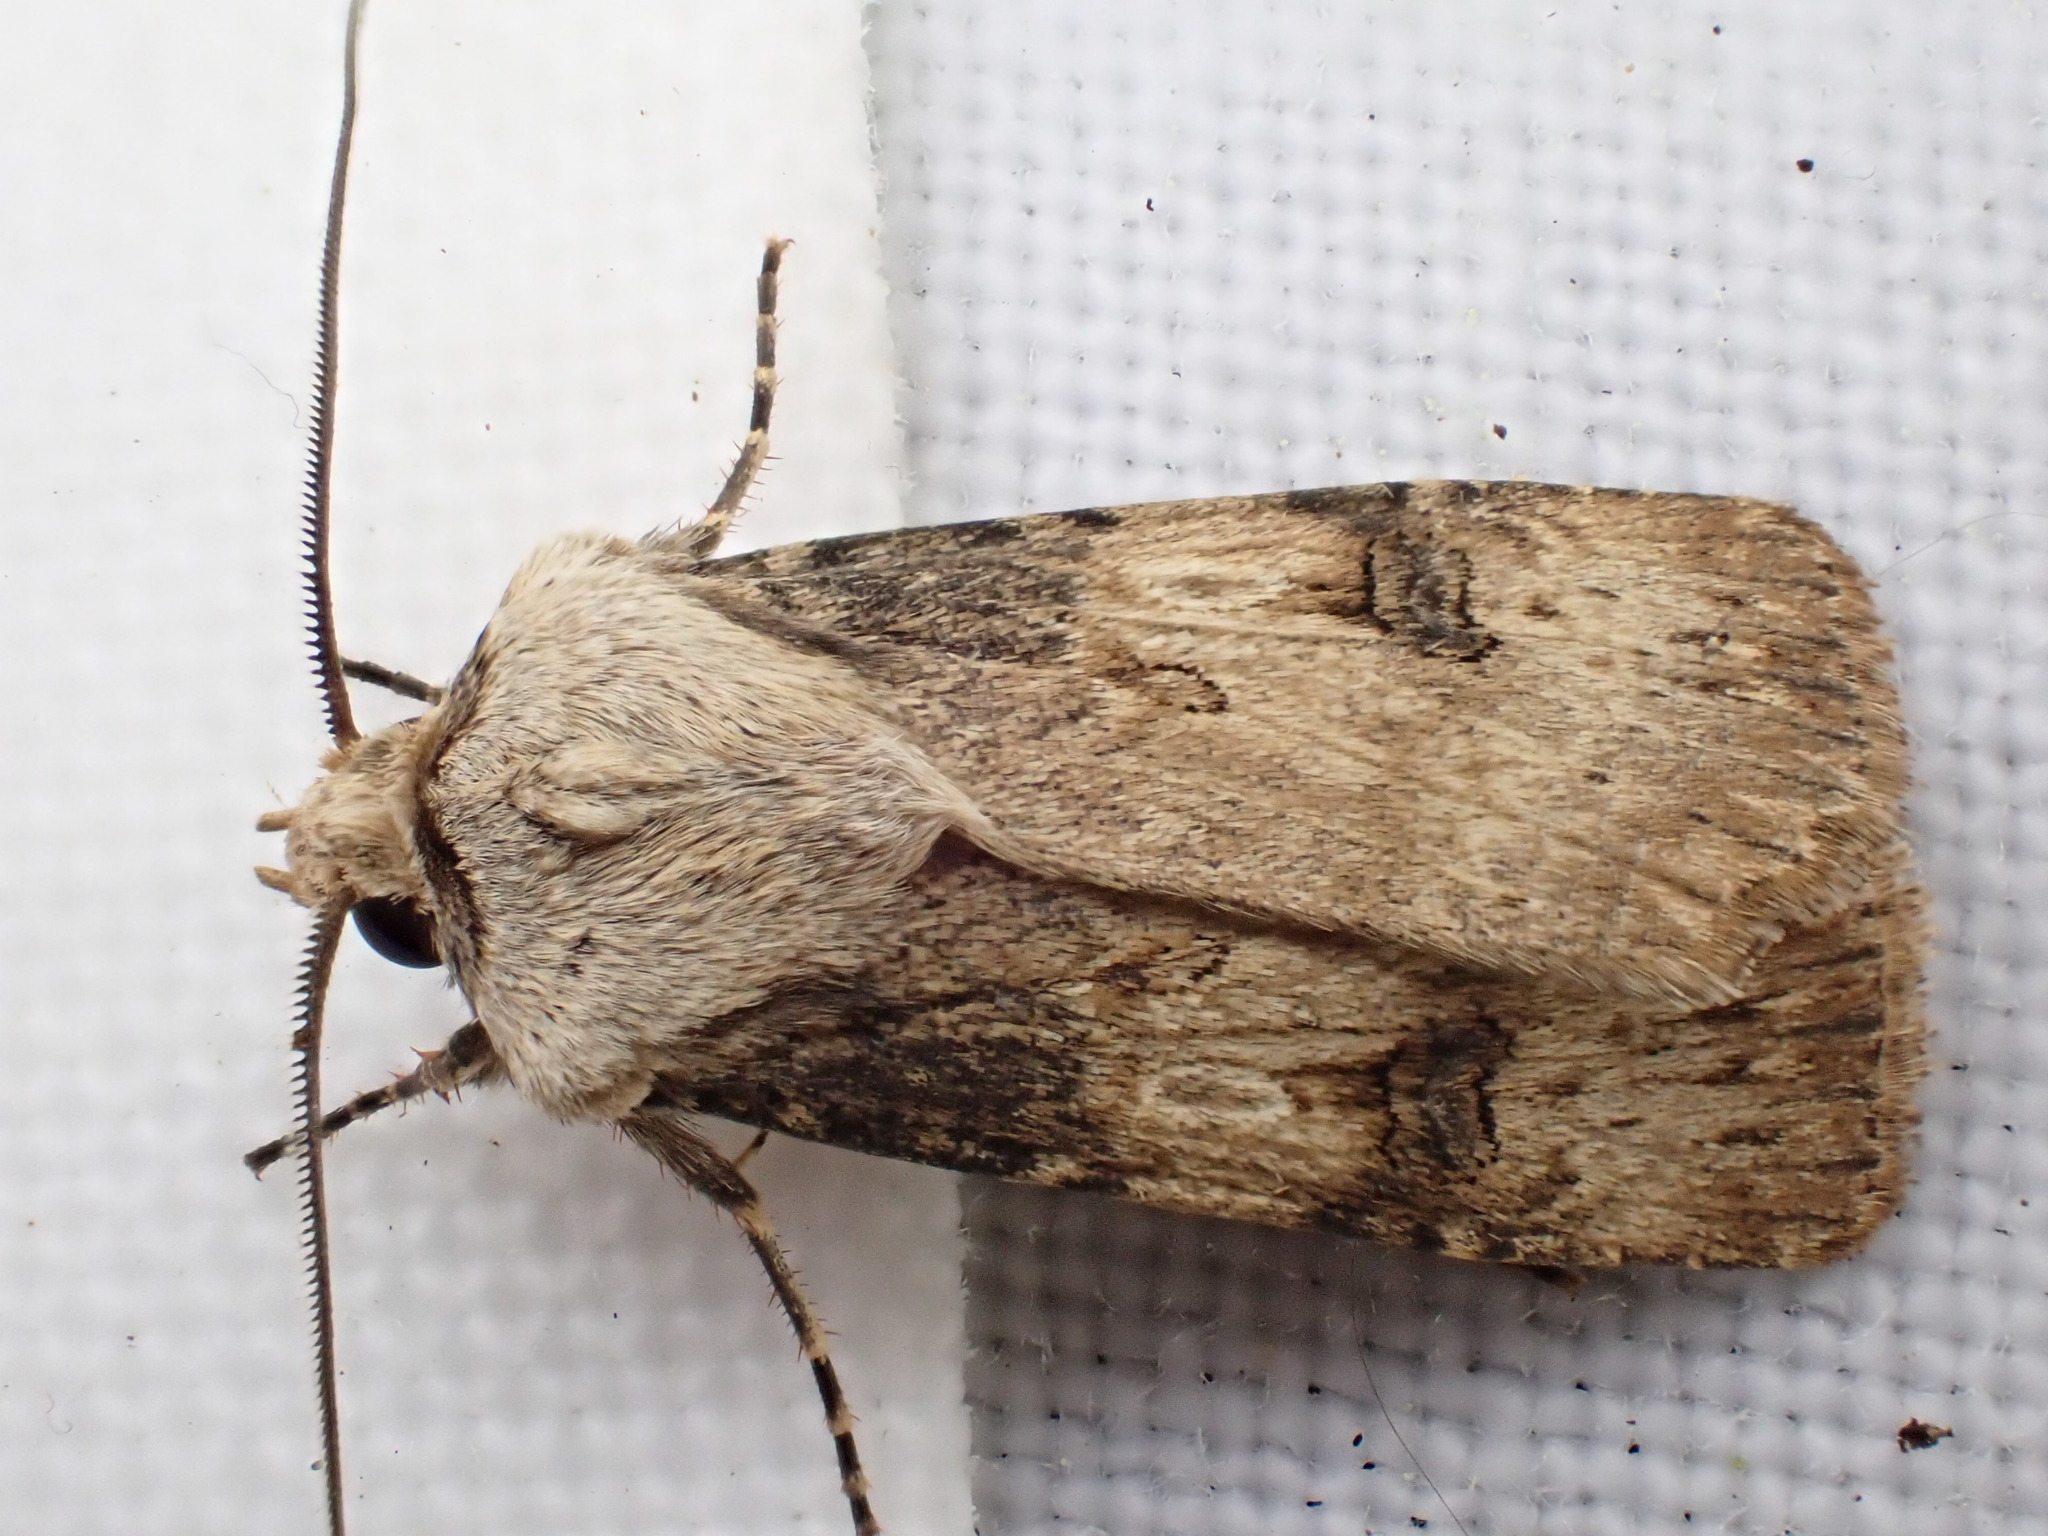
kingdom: Animalia
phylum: Arthropoda
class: Insecta
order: Lepidoptera
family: Noctuidae
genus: Agrotis
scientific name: Agrotis puta
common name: Shuttle-shaped dart
